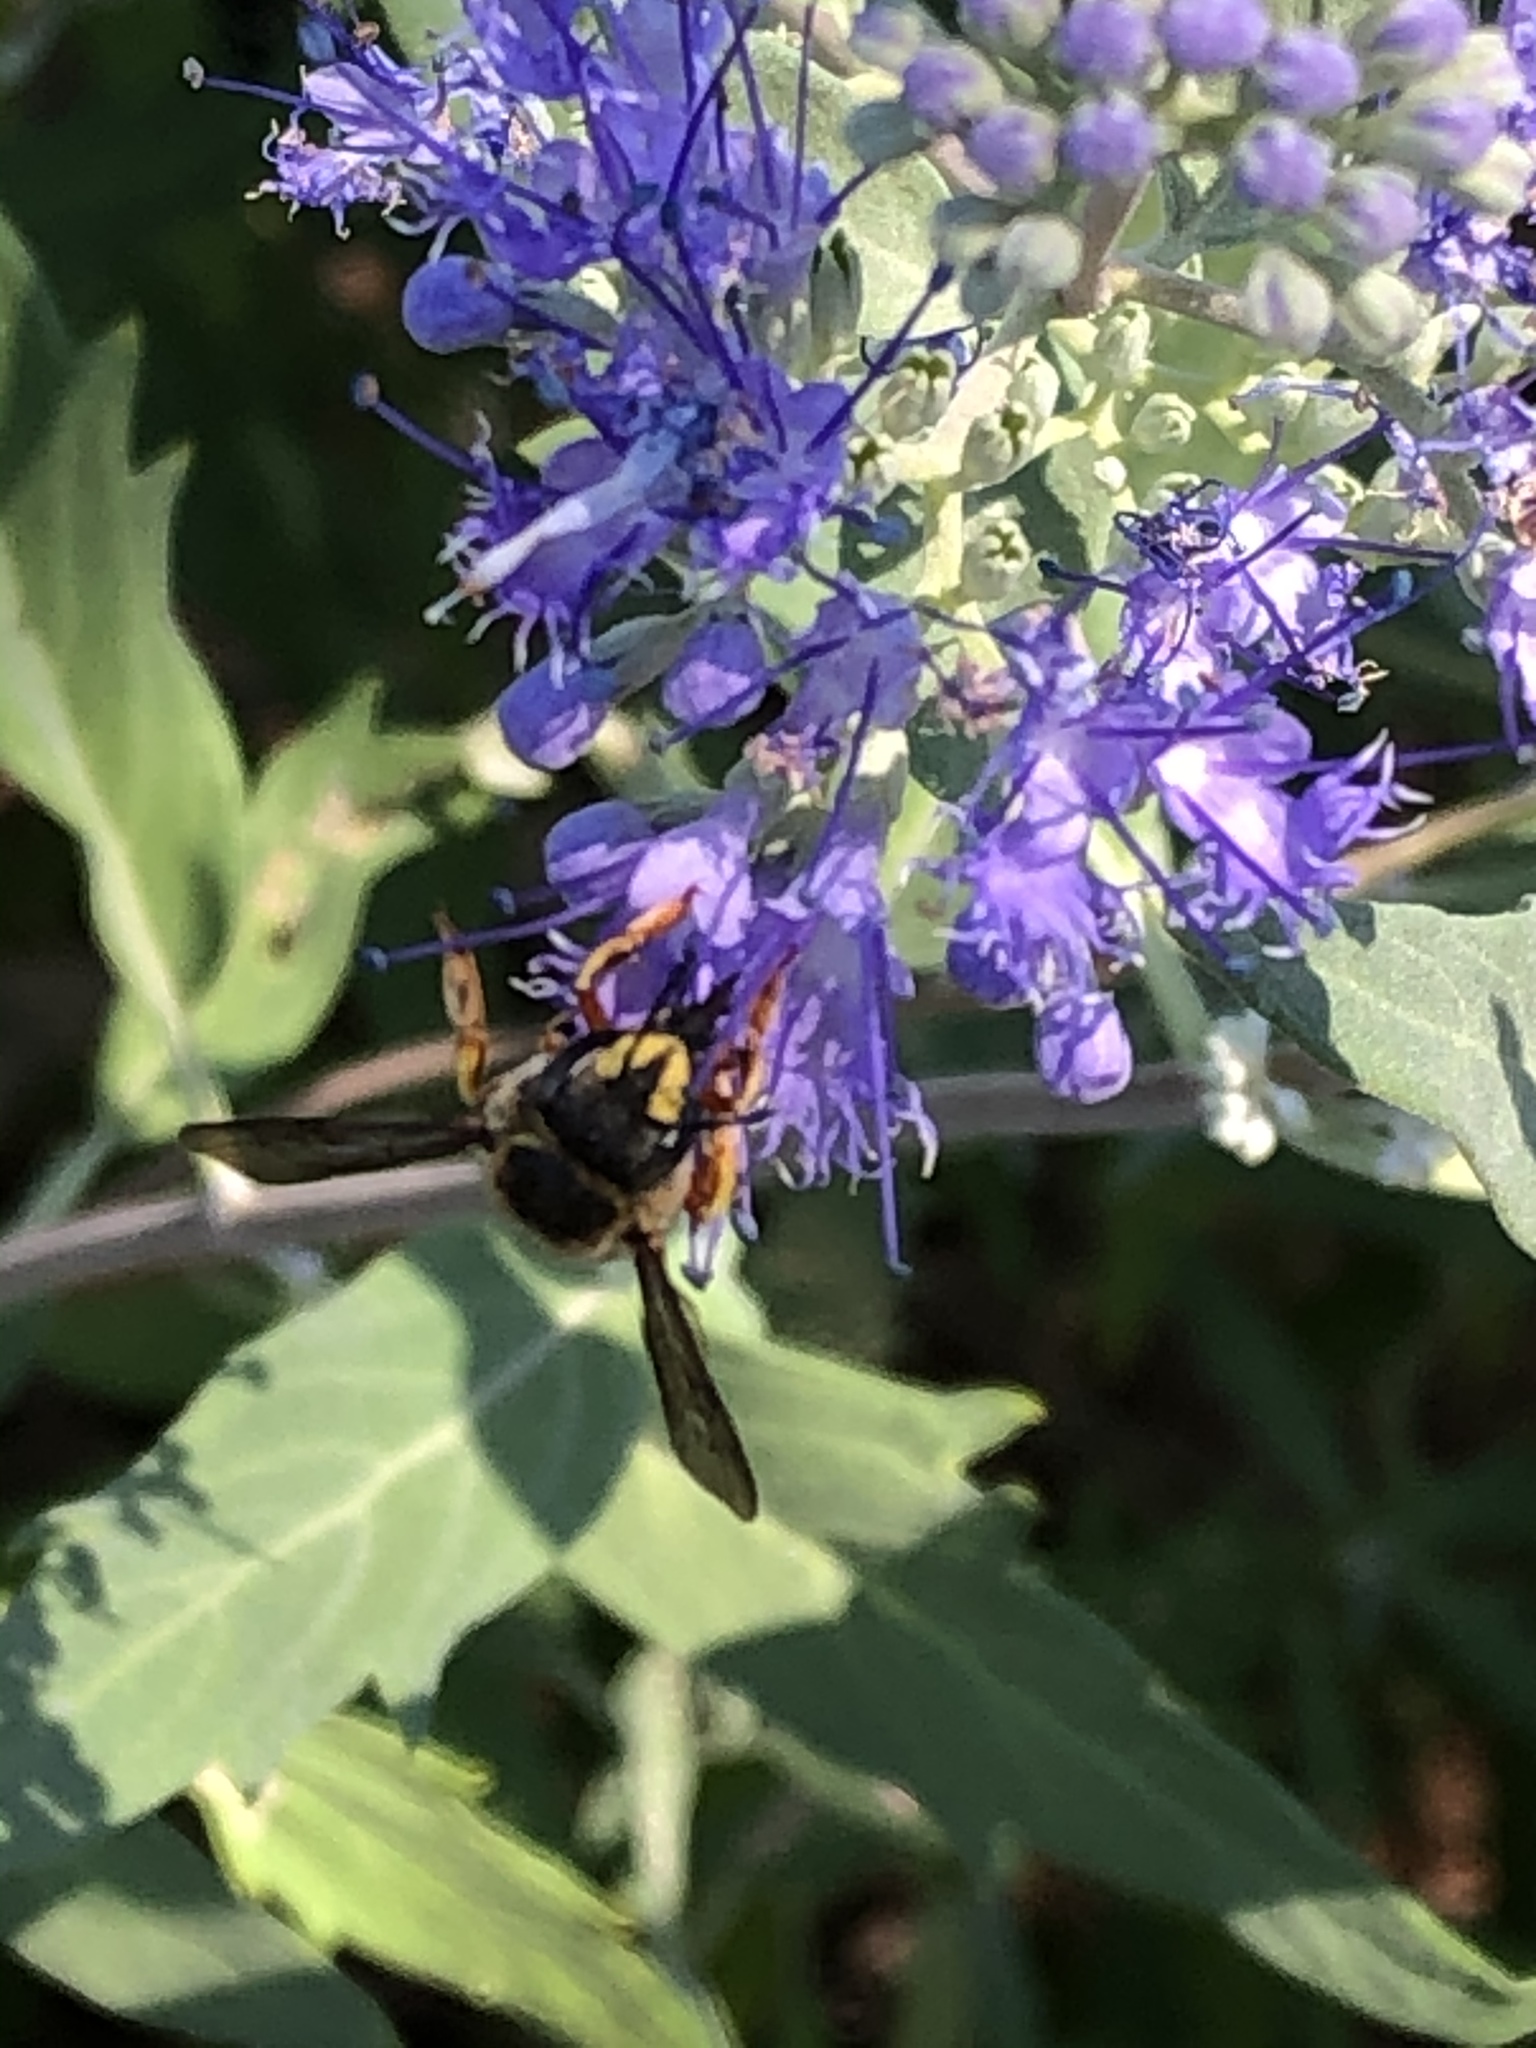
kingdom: Animalia
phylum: Arthropoda
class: Insecta
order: Hymenoptera
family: Megachilidae
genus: Anthidium
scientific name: Anthidium manicatum
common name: Wool carder bee
